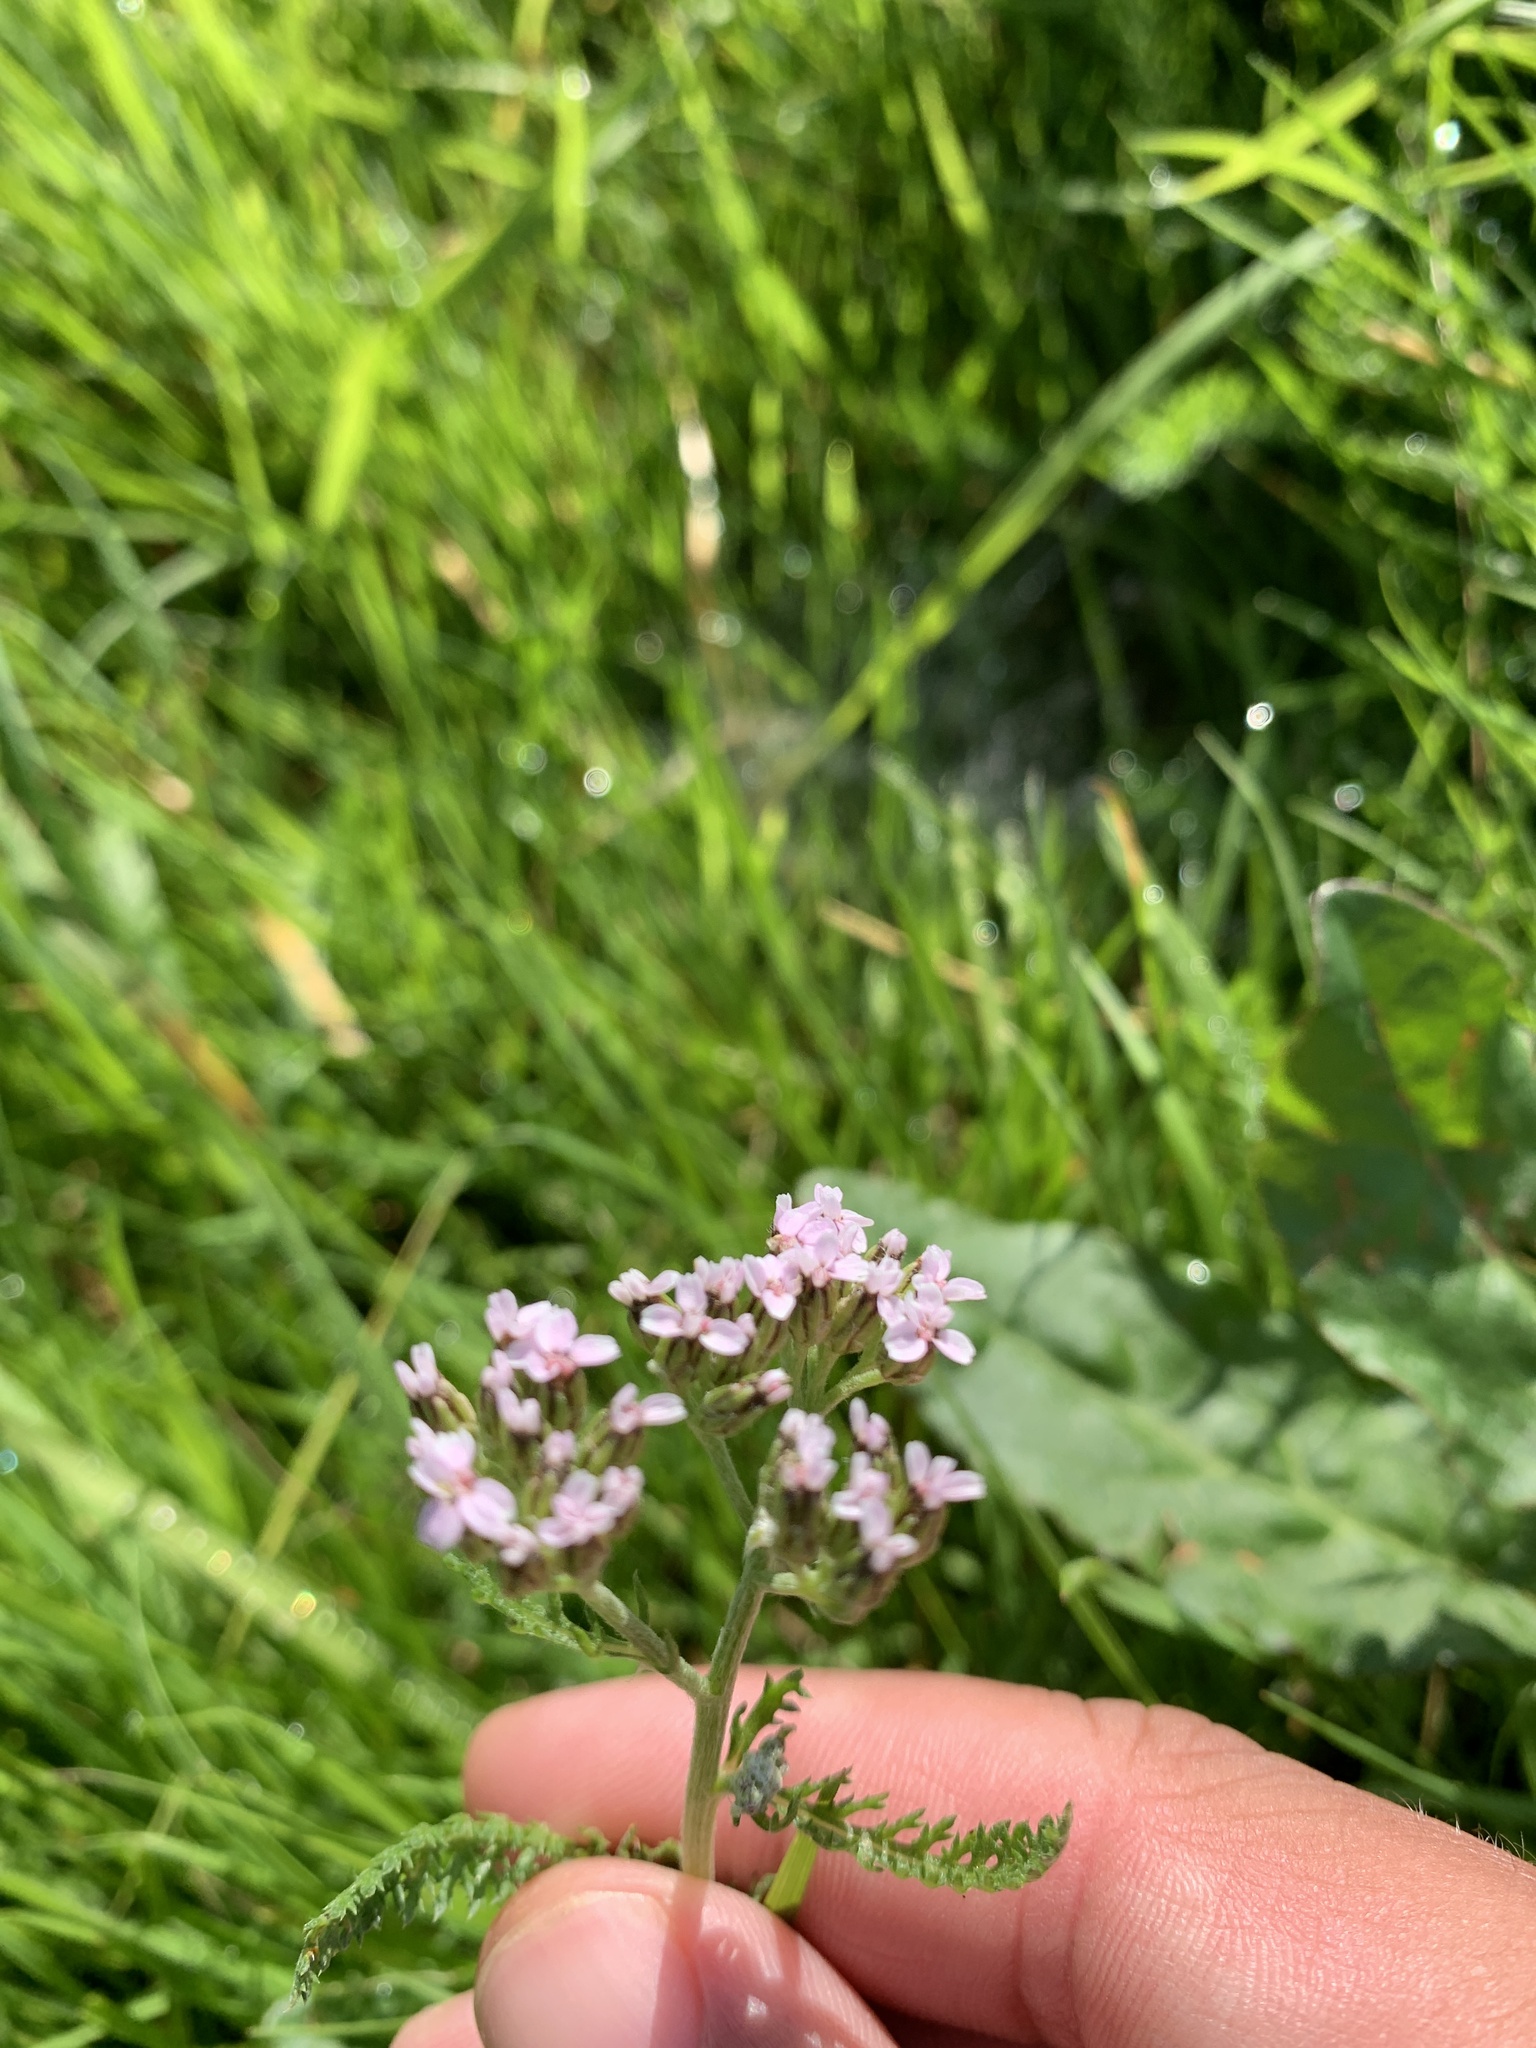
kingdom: Plantae
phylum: Tracheophyta
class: Magnoliopsida
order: Asterales
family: Asteraceae
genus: Achillea
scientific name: Achillea millefolium
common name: Yarrow
